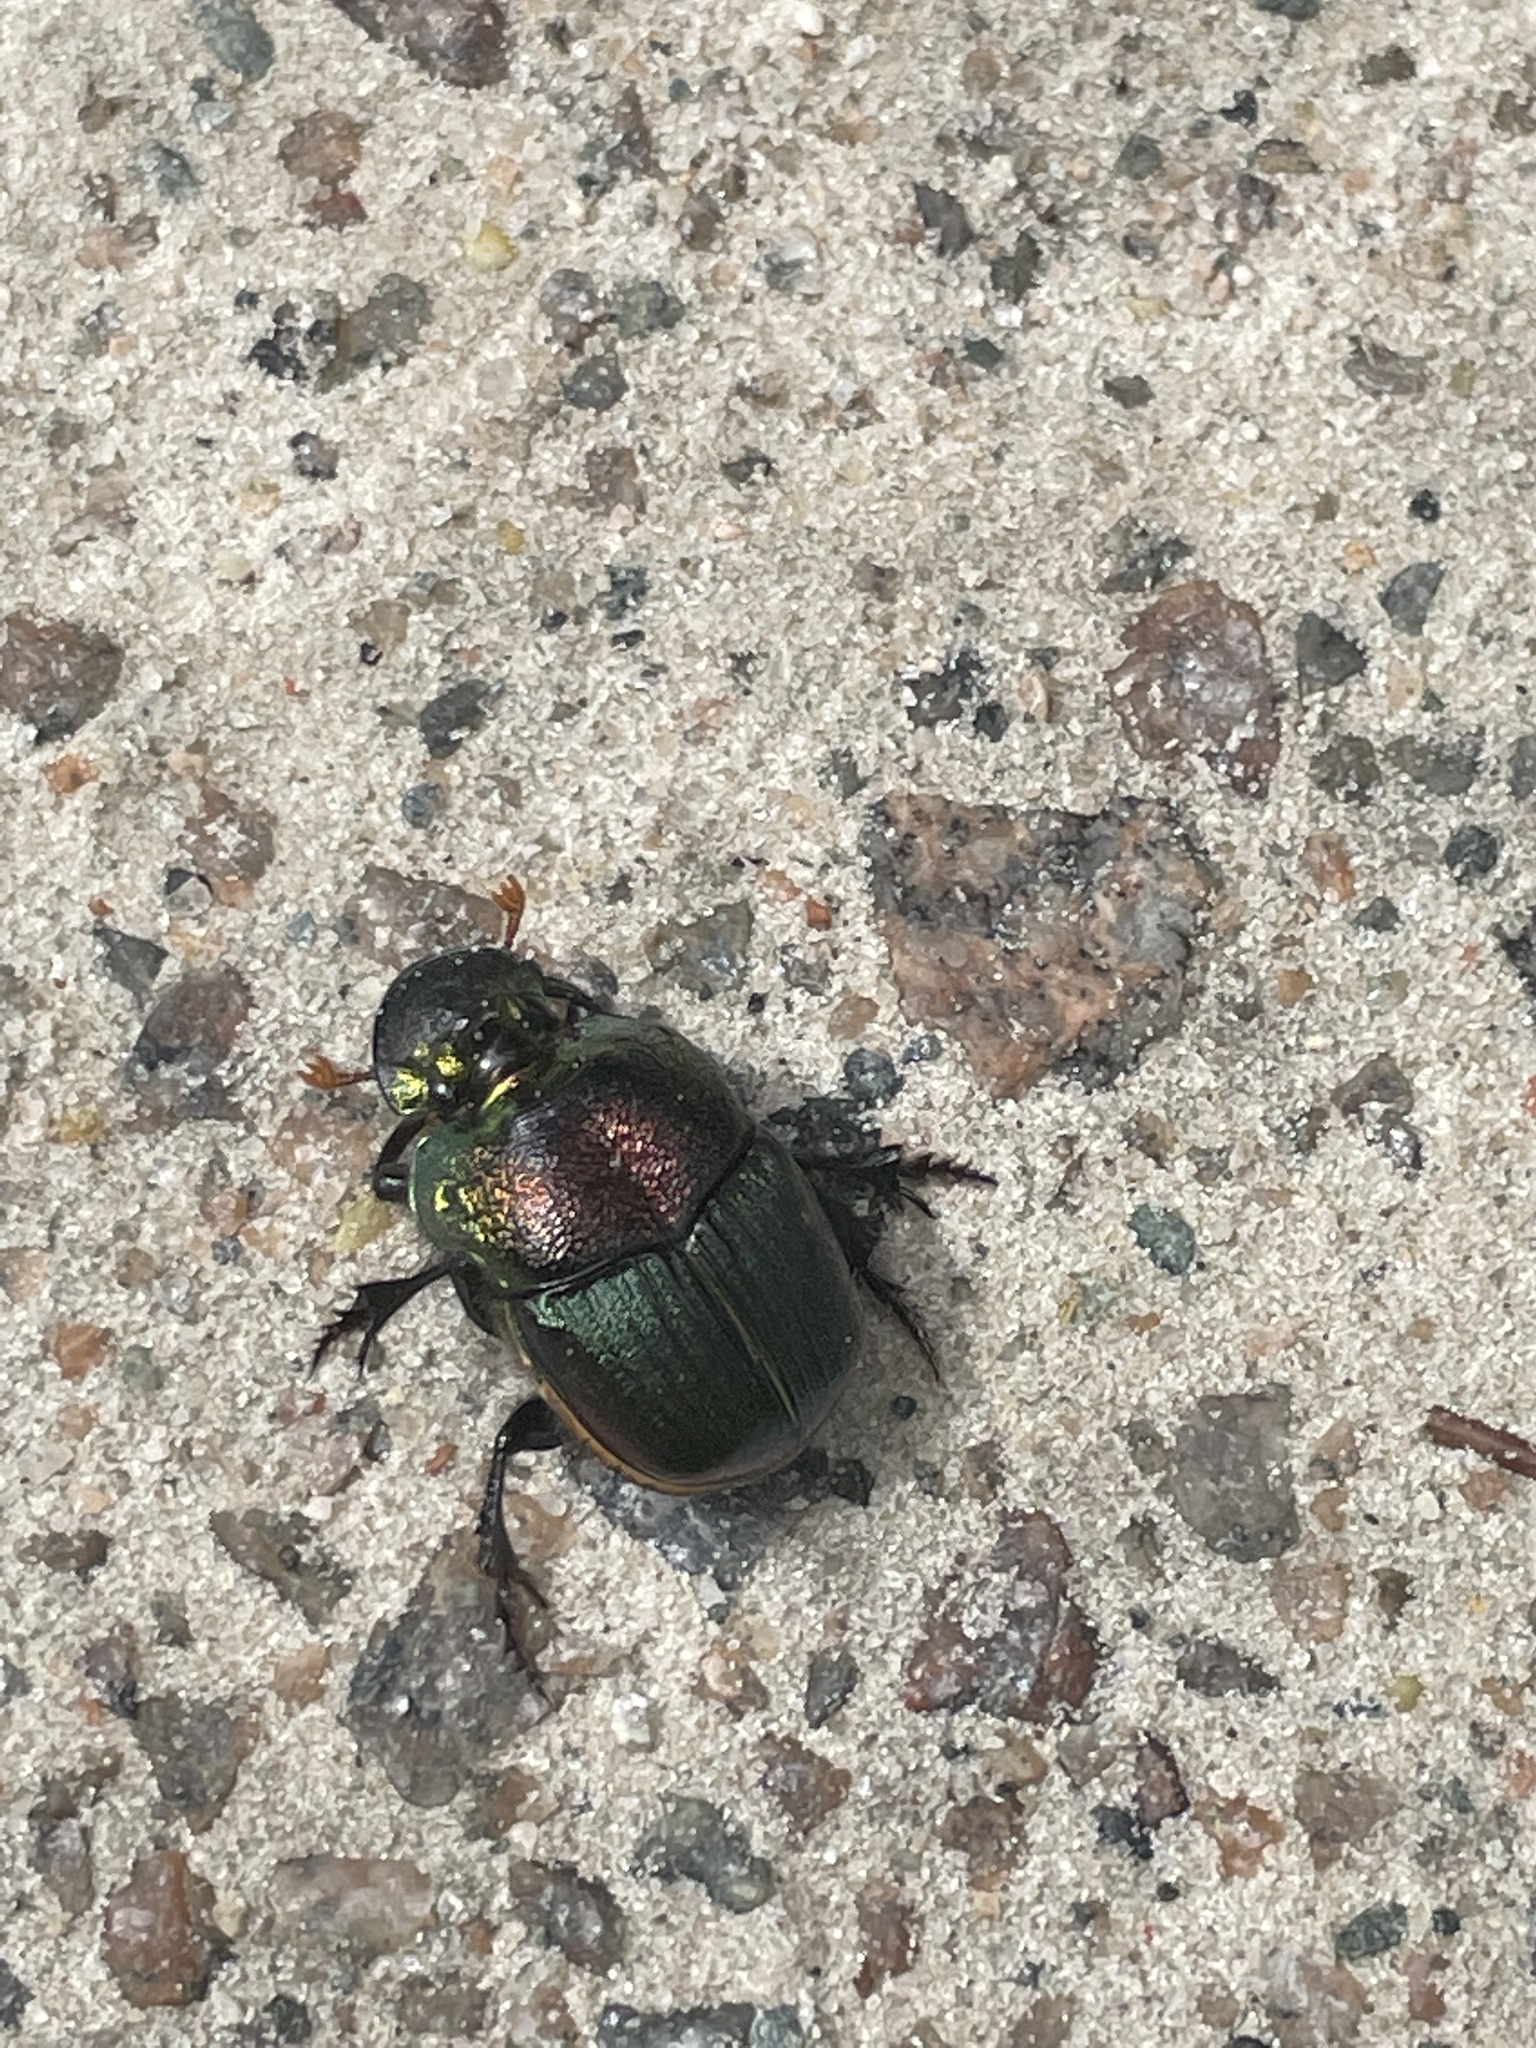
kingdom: Animalia
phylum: Arthropoda
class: Insecta
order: Coleoptera
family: Scarabaeidae
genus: Phanaeus
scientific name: Phanaeus vindex
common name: Rainbow scarab
